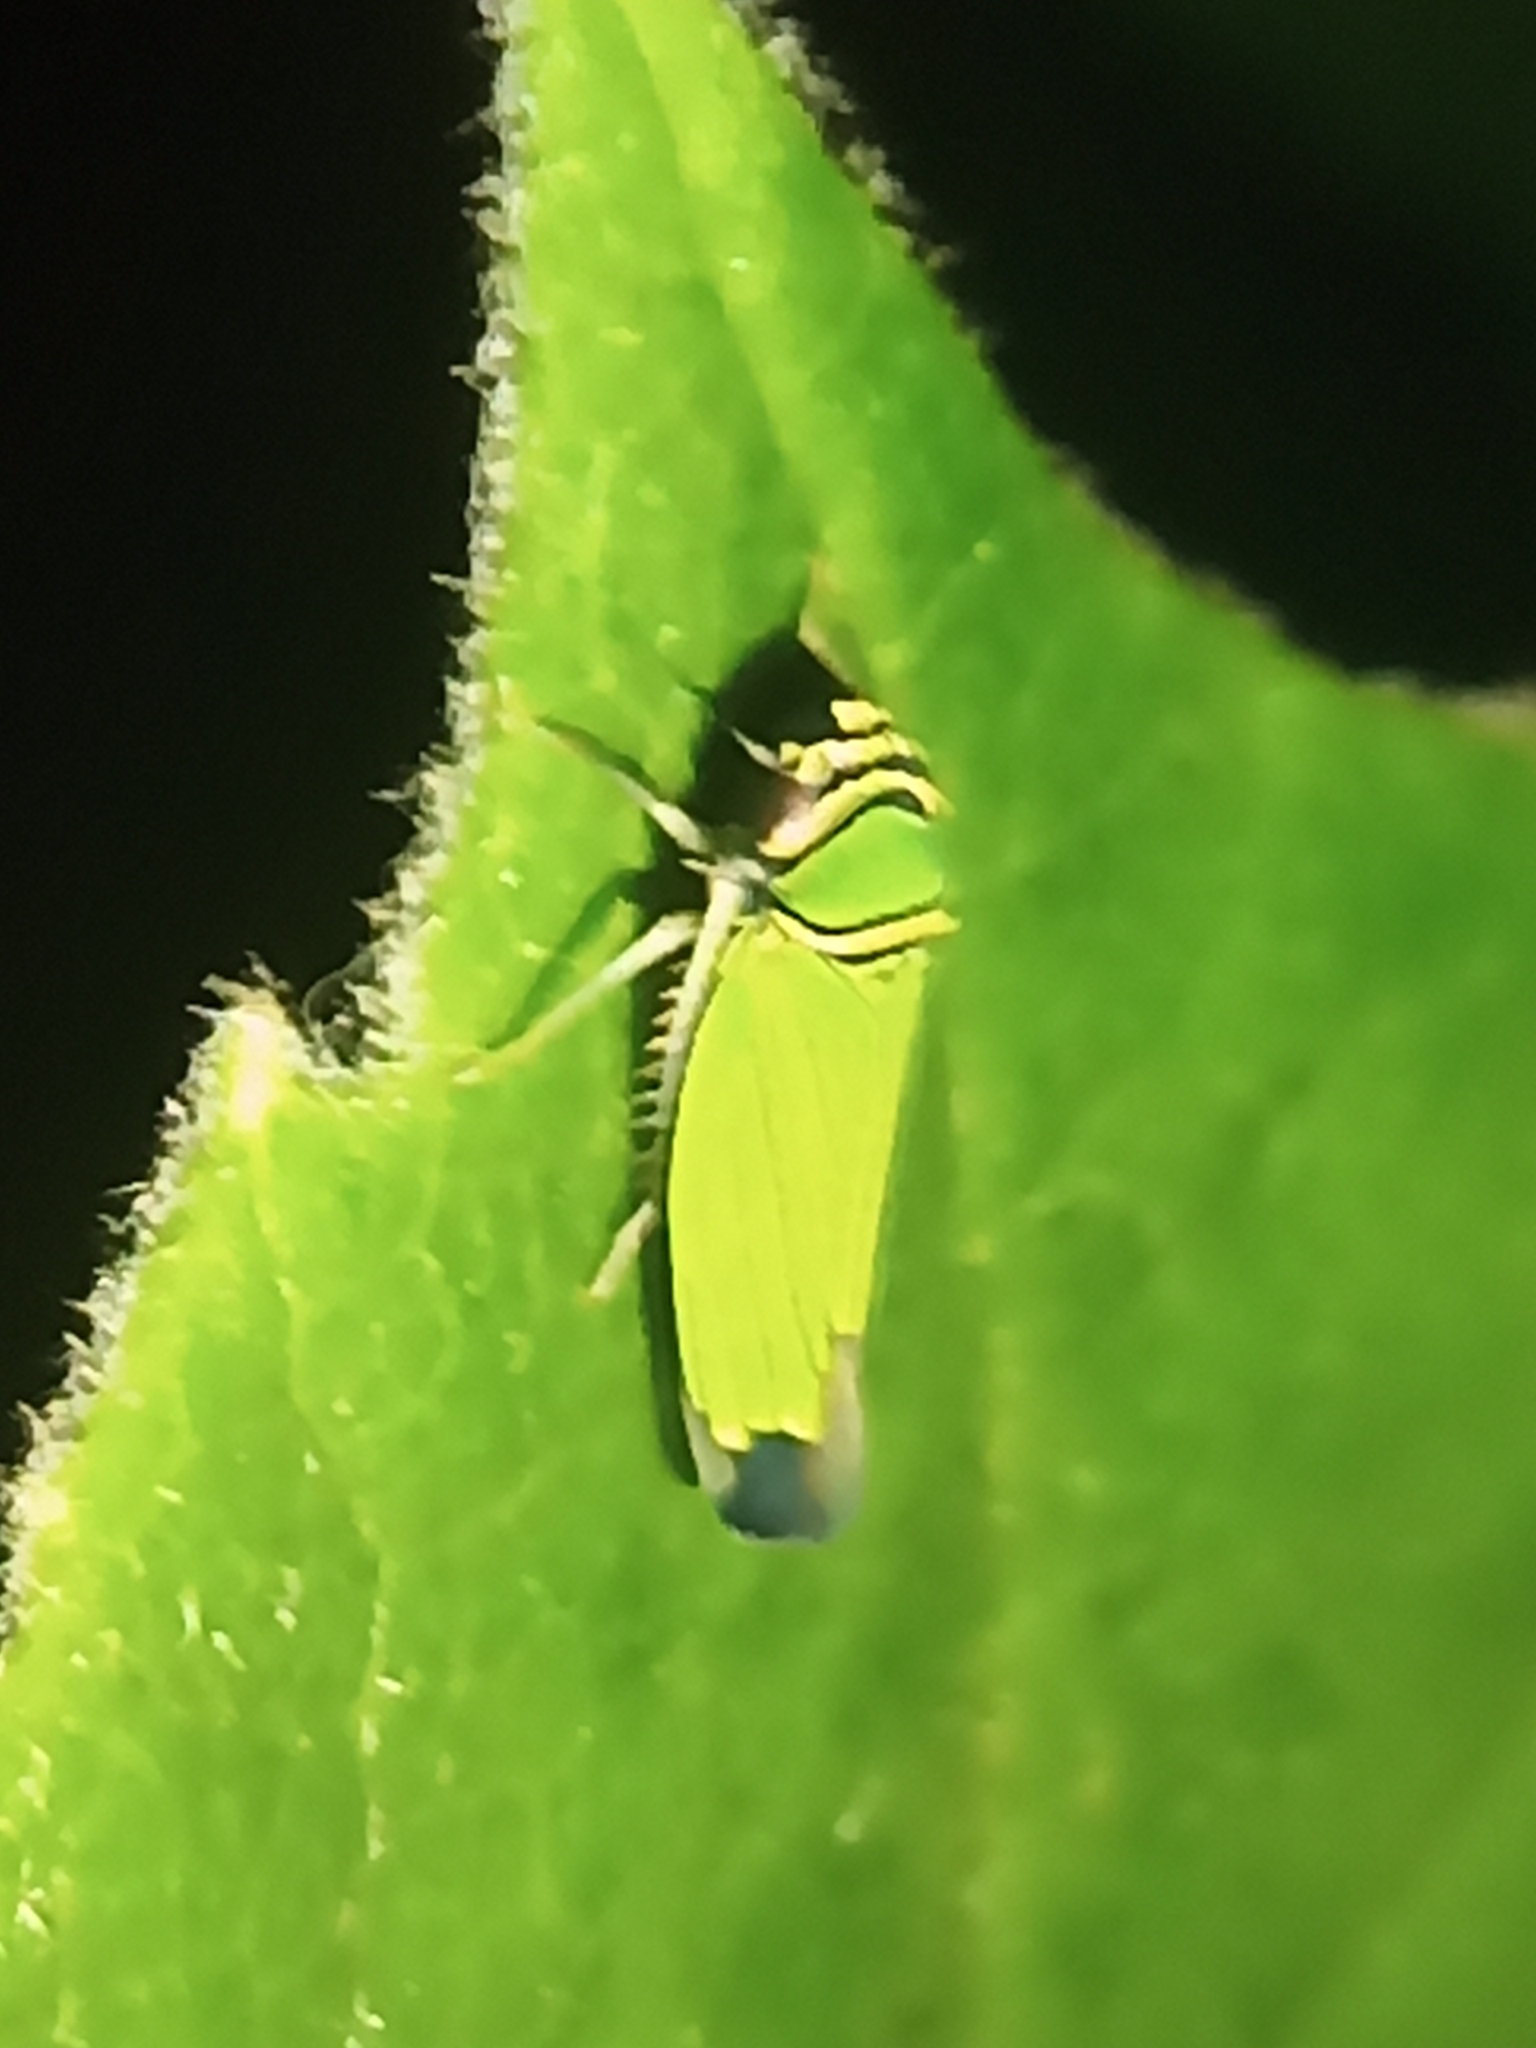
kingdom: Animalia
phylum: Arthropoda
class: Insecta
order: Hemiptera
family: Cicadellidae
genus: Tylozygus
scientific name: Tylozygus geometricus
